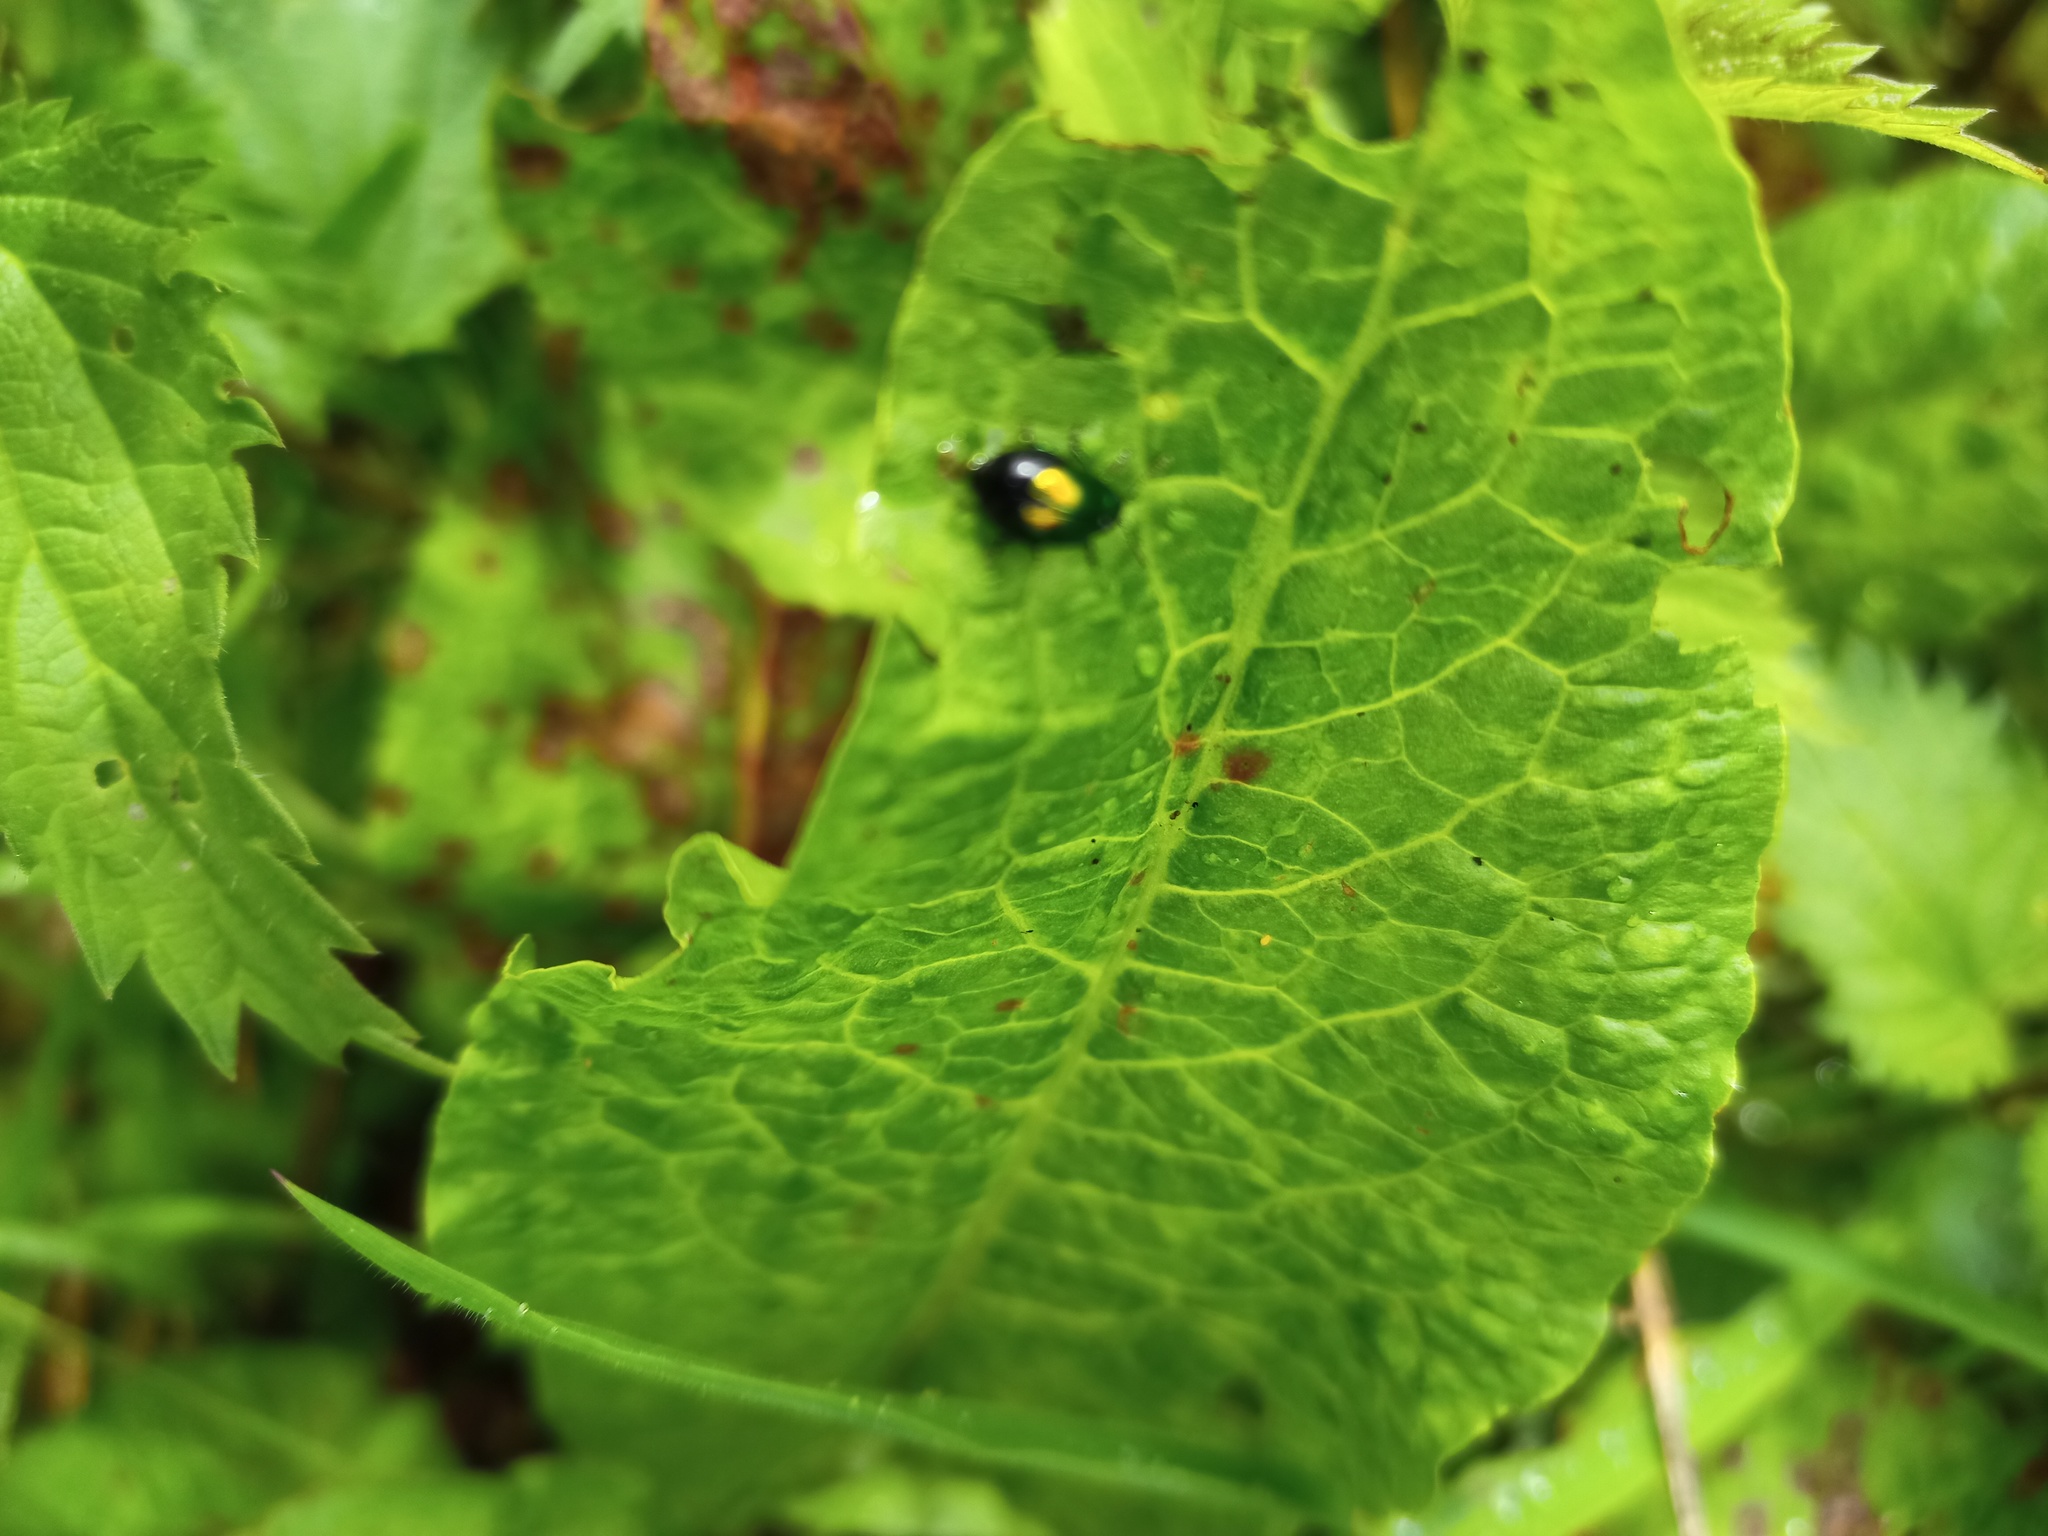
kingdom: Animalia
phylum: Arthropoda
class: Insecta
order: Coleoptera
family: Chrysomelidae
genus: Gastrophysa
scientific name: Gastrophysa viridula
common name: Green dock beetle
